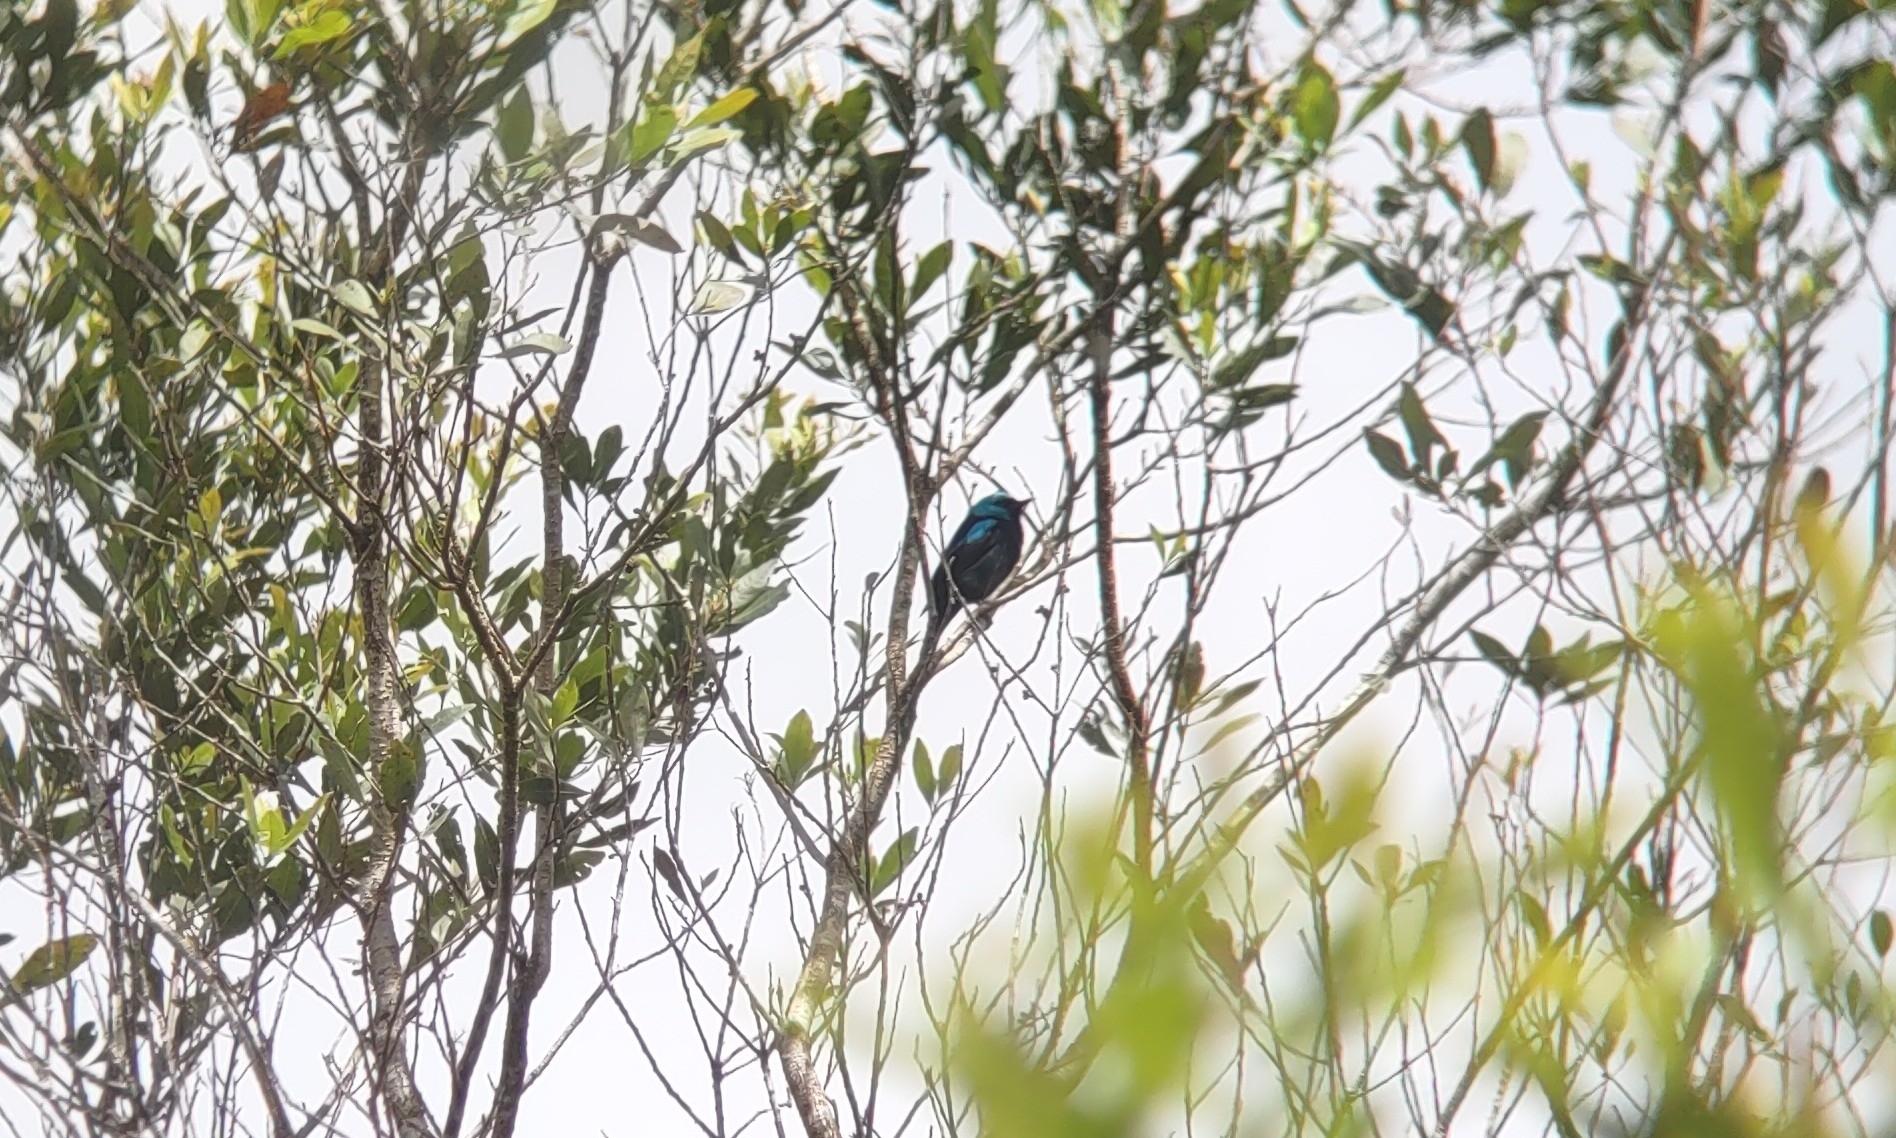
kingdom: Animalia
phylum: Chordata
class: Aves
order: Passeriformes
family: Thraupidae
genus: Dacnis
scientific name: Dacnis venusta
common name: Scarlet-thighed dacnis
